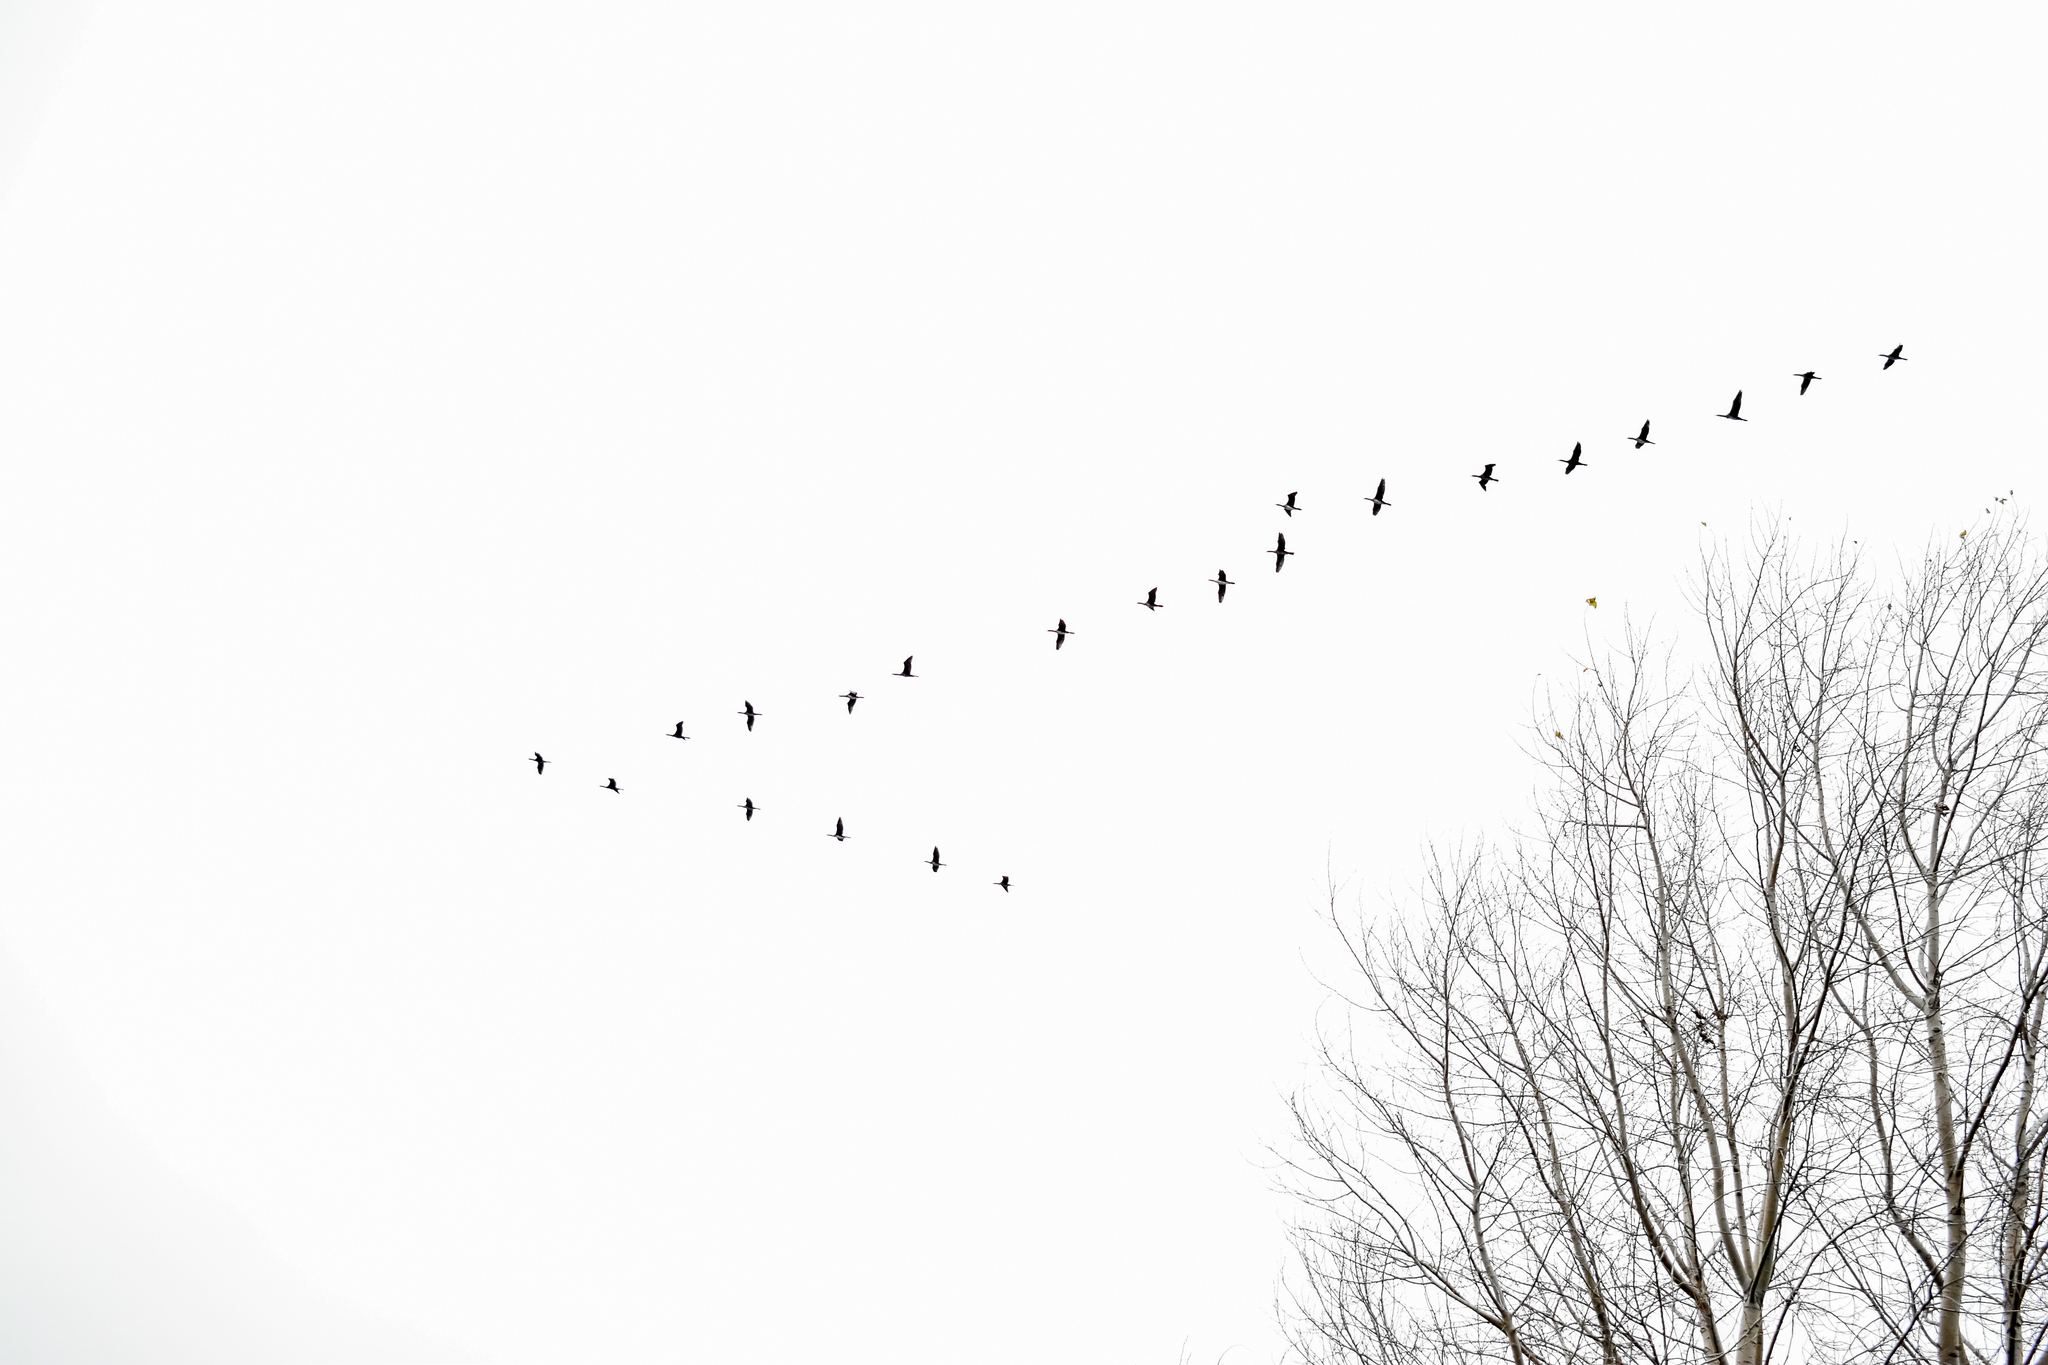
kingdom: Animalia
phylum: Chordata
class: Aves
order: Gruiformes
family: Gruidae
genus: Grus
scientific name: Grus grus
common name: Common crane
